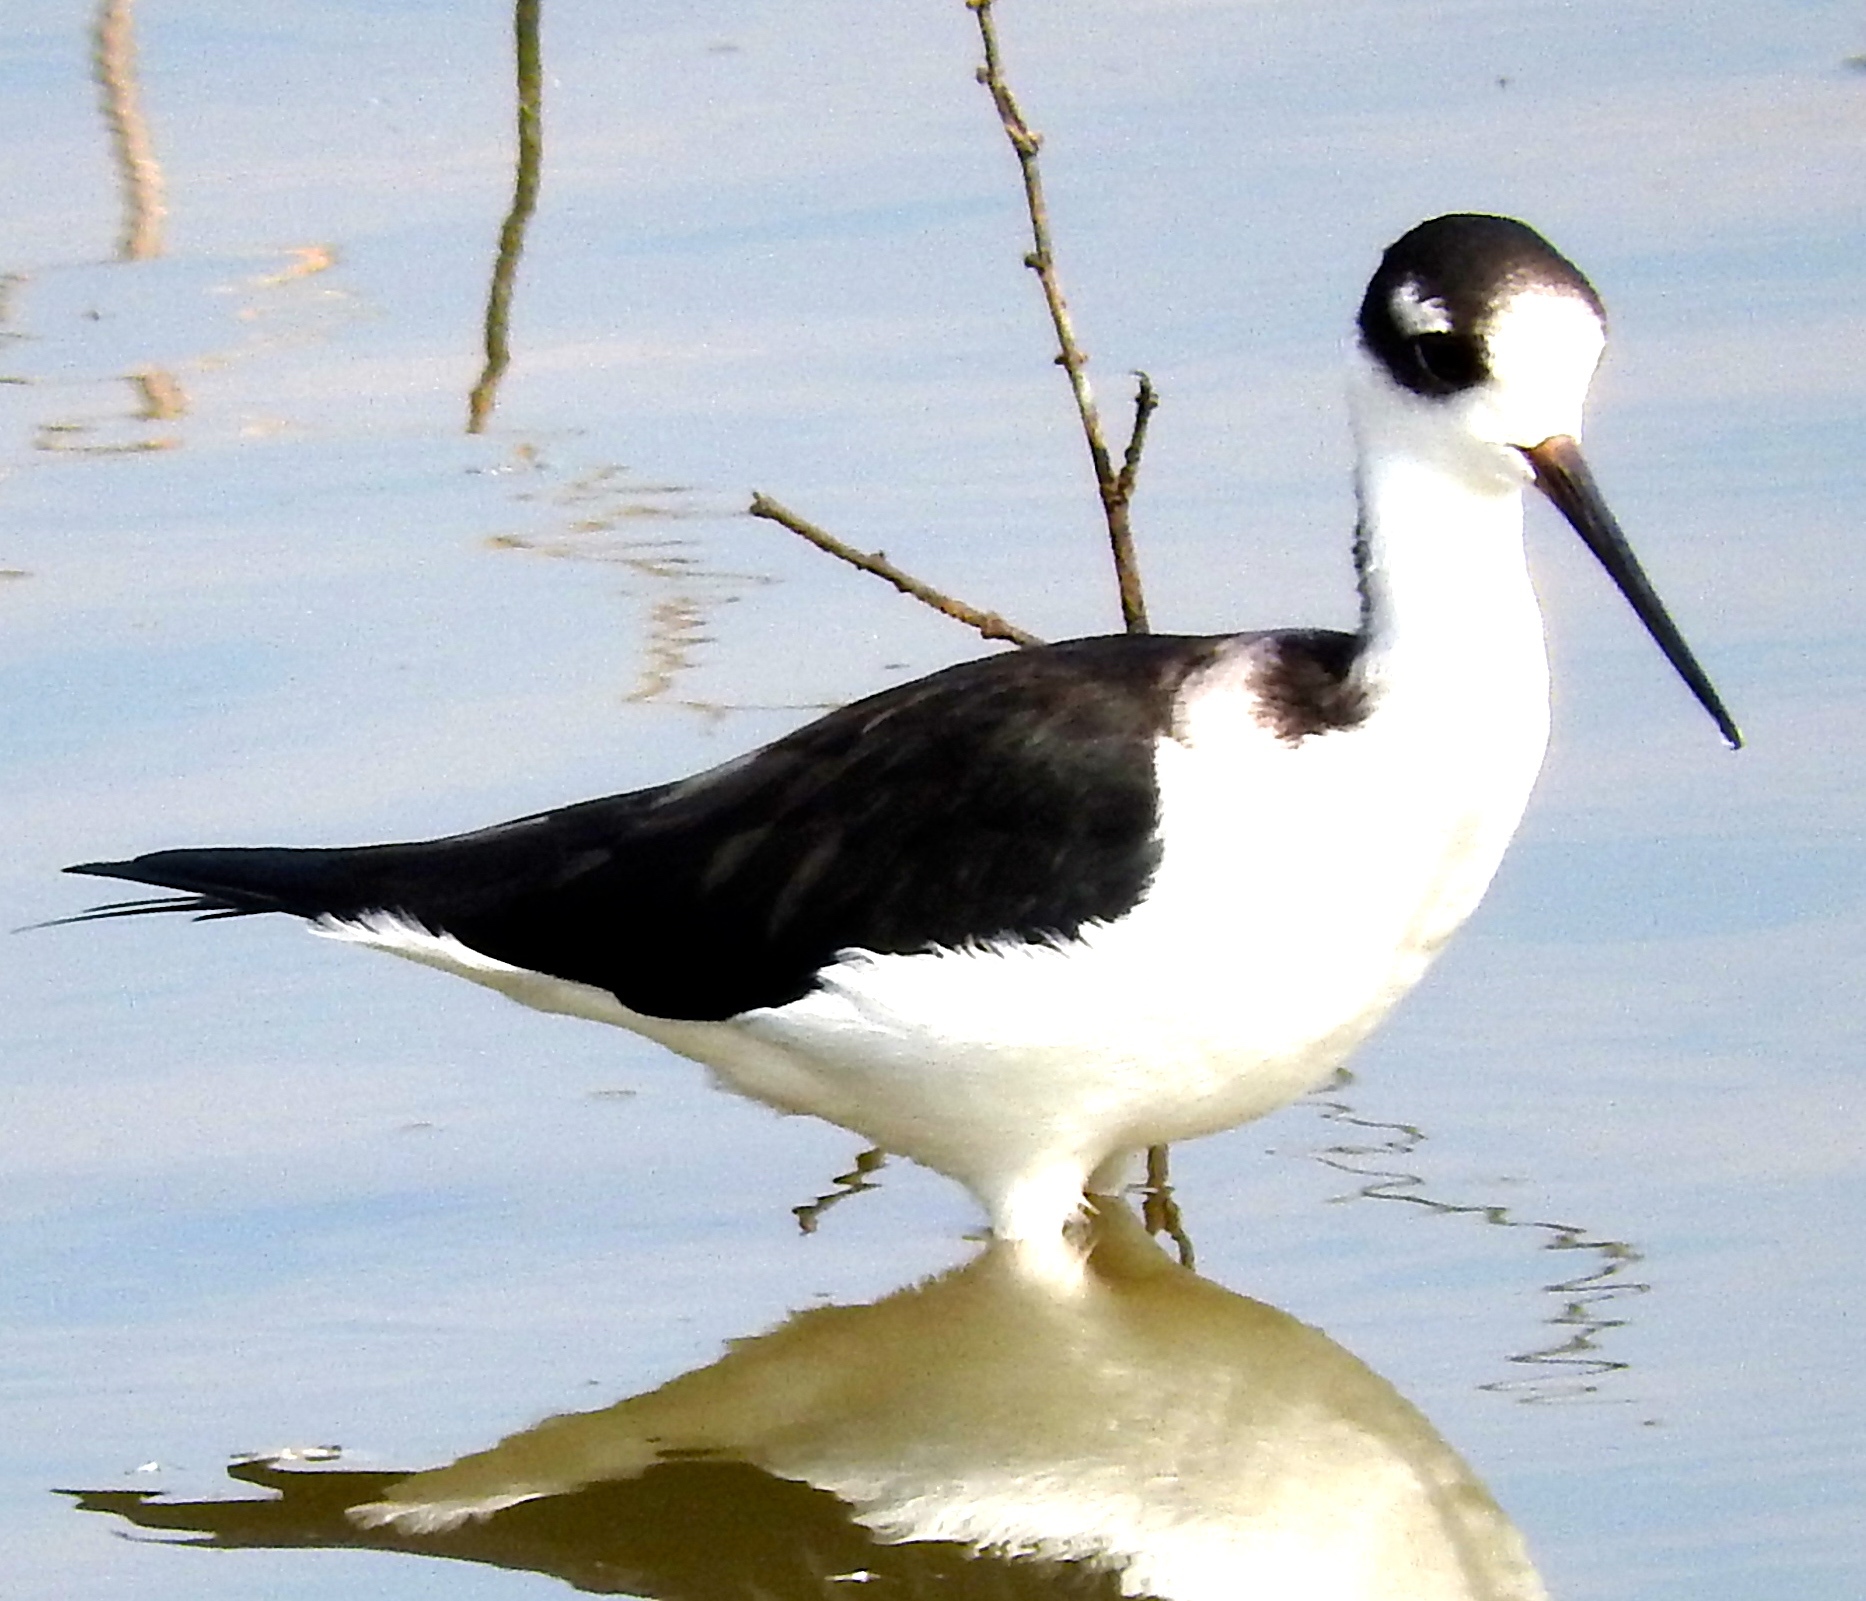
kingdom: Animalia
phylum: Chordata
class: Aves
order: Charadriiformes
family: Recurvirostridae
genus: Himantopus
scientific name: Himantopus mexicanus
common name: Black-necked stilt
